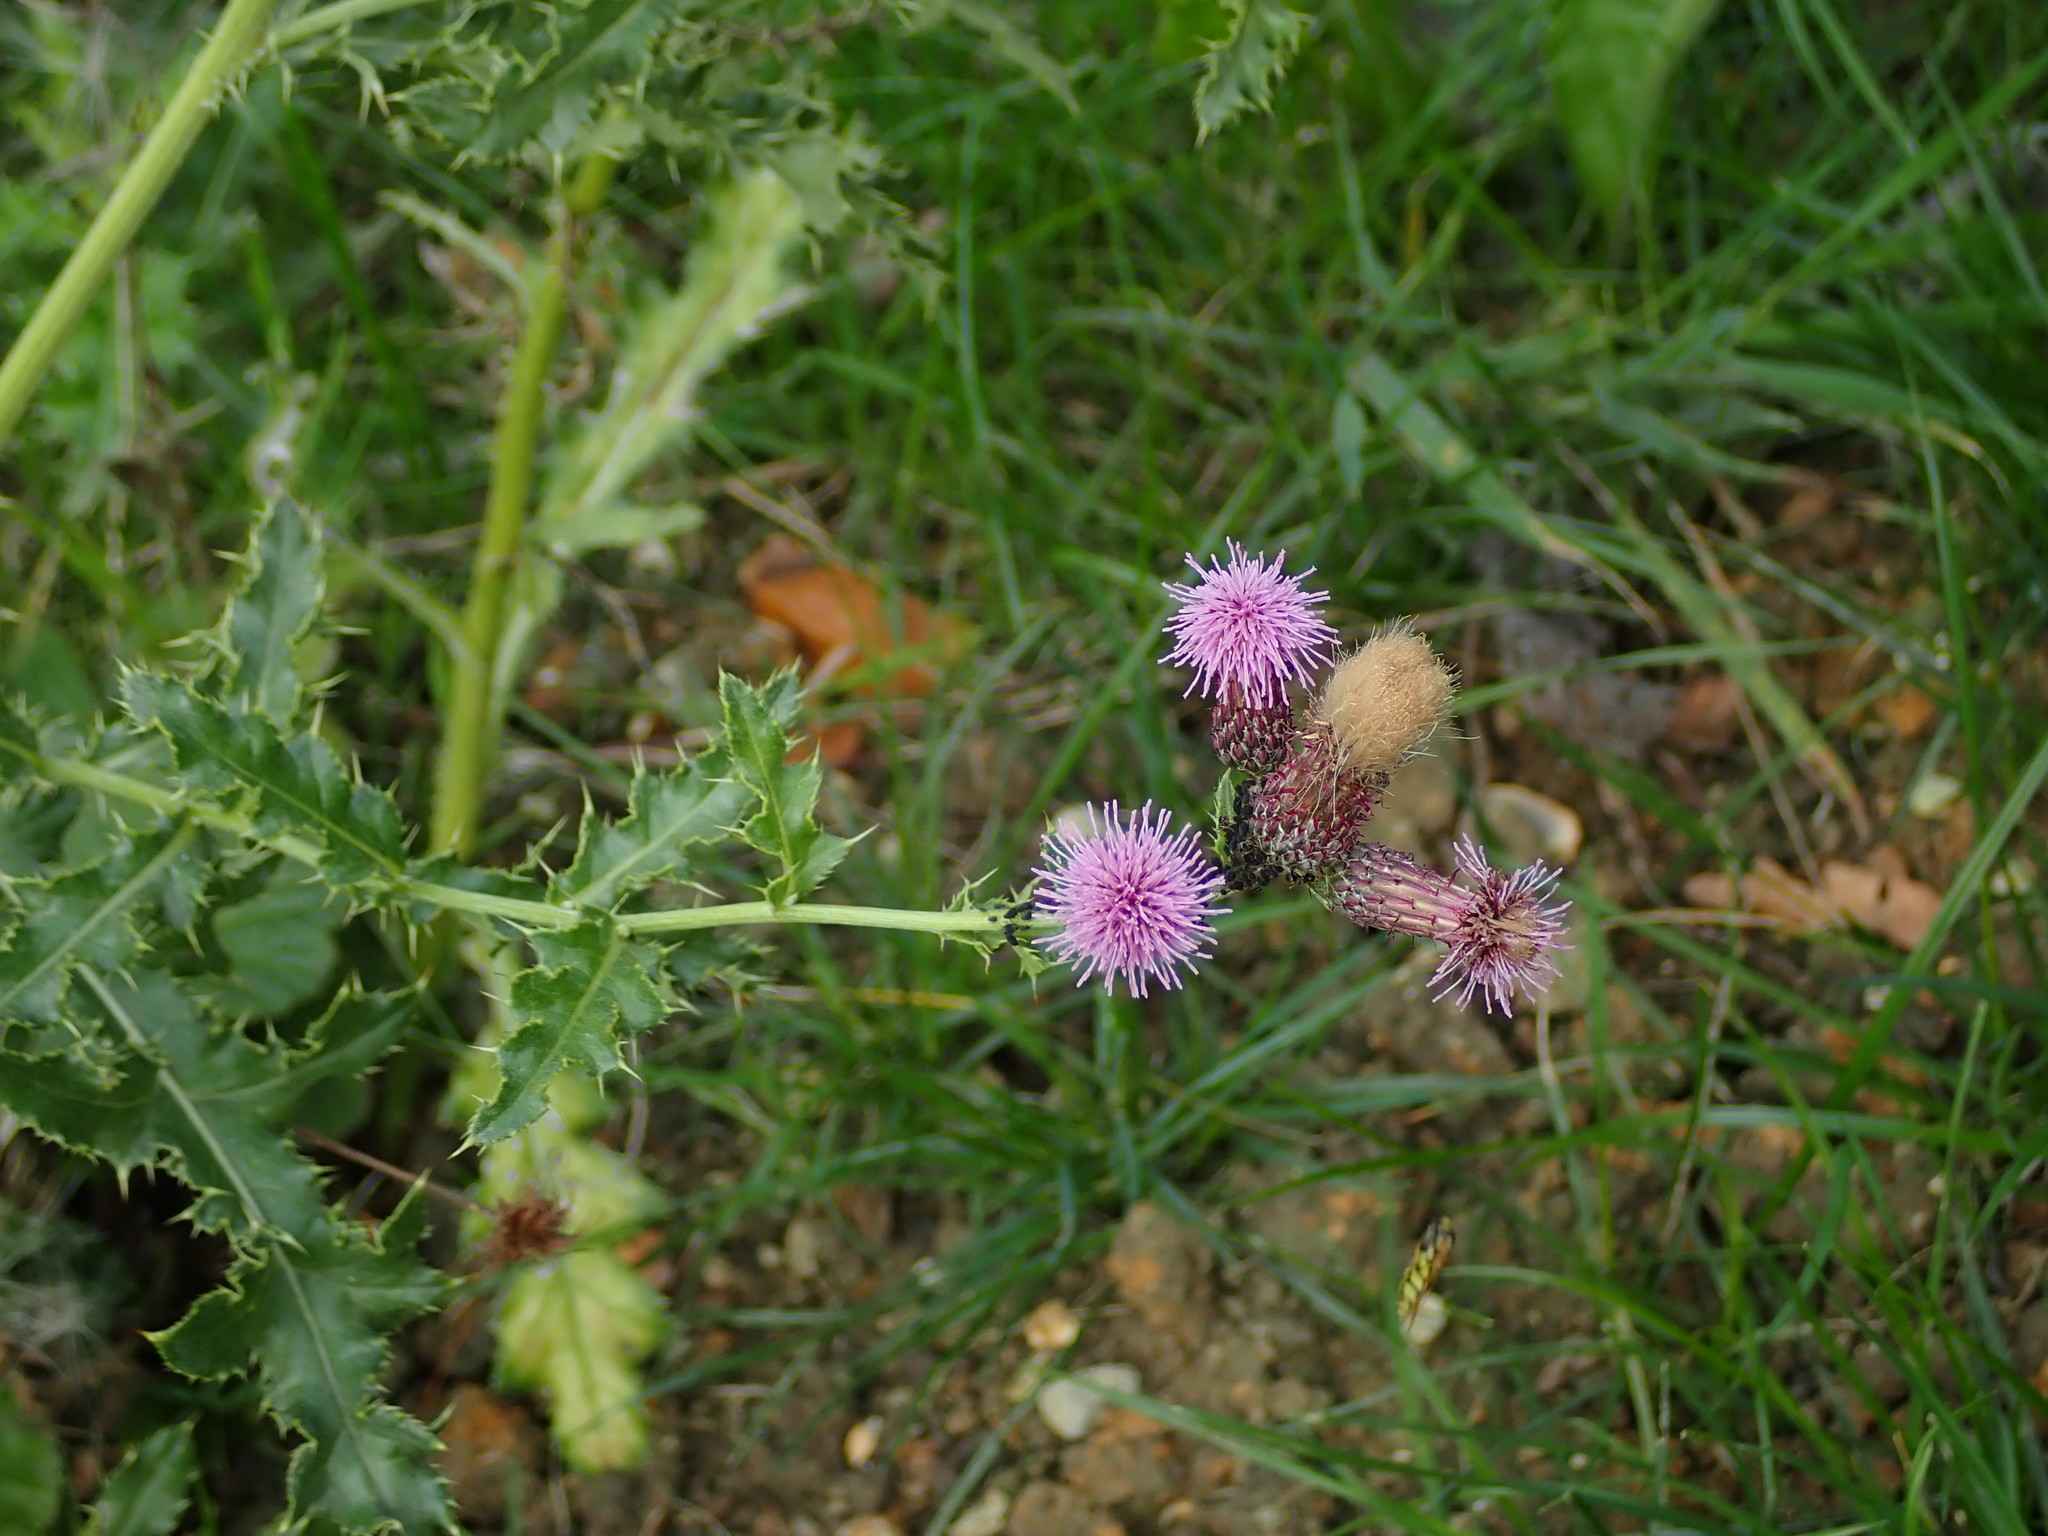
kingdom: Plantae
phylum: Tracheophyta
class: Magnoliopsida
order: Asterales
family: Asteraceae
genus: Cirsium
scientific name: Cirsium arvense
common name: Creeping thistle
